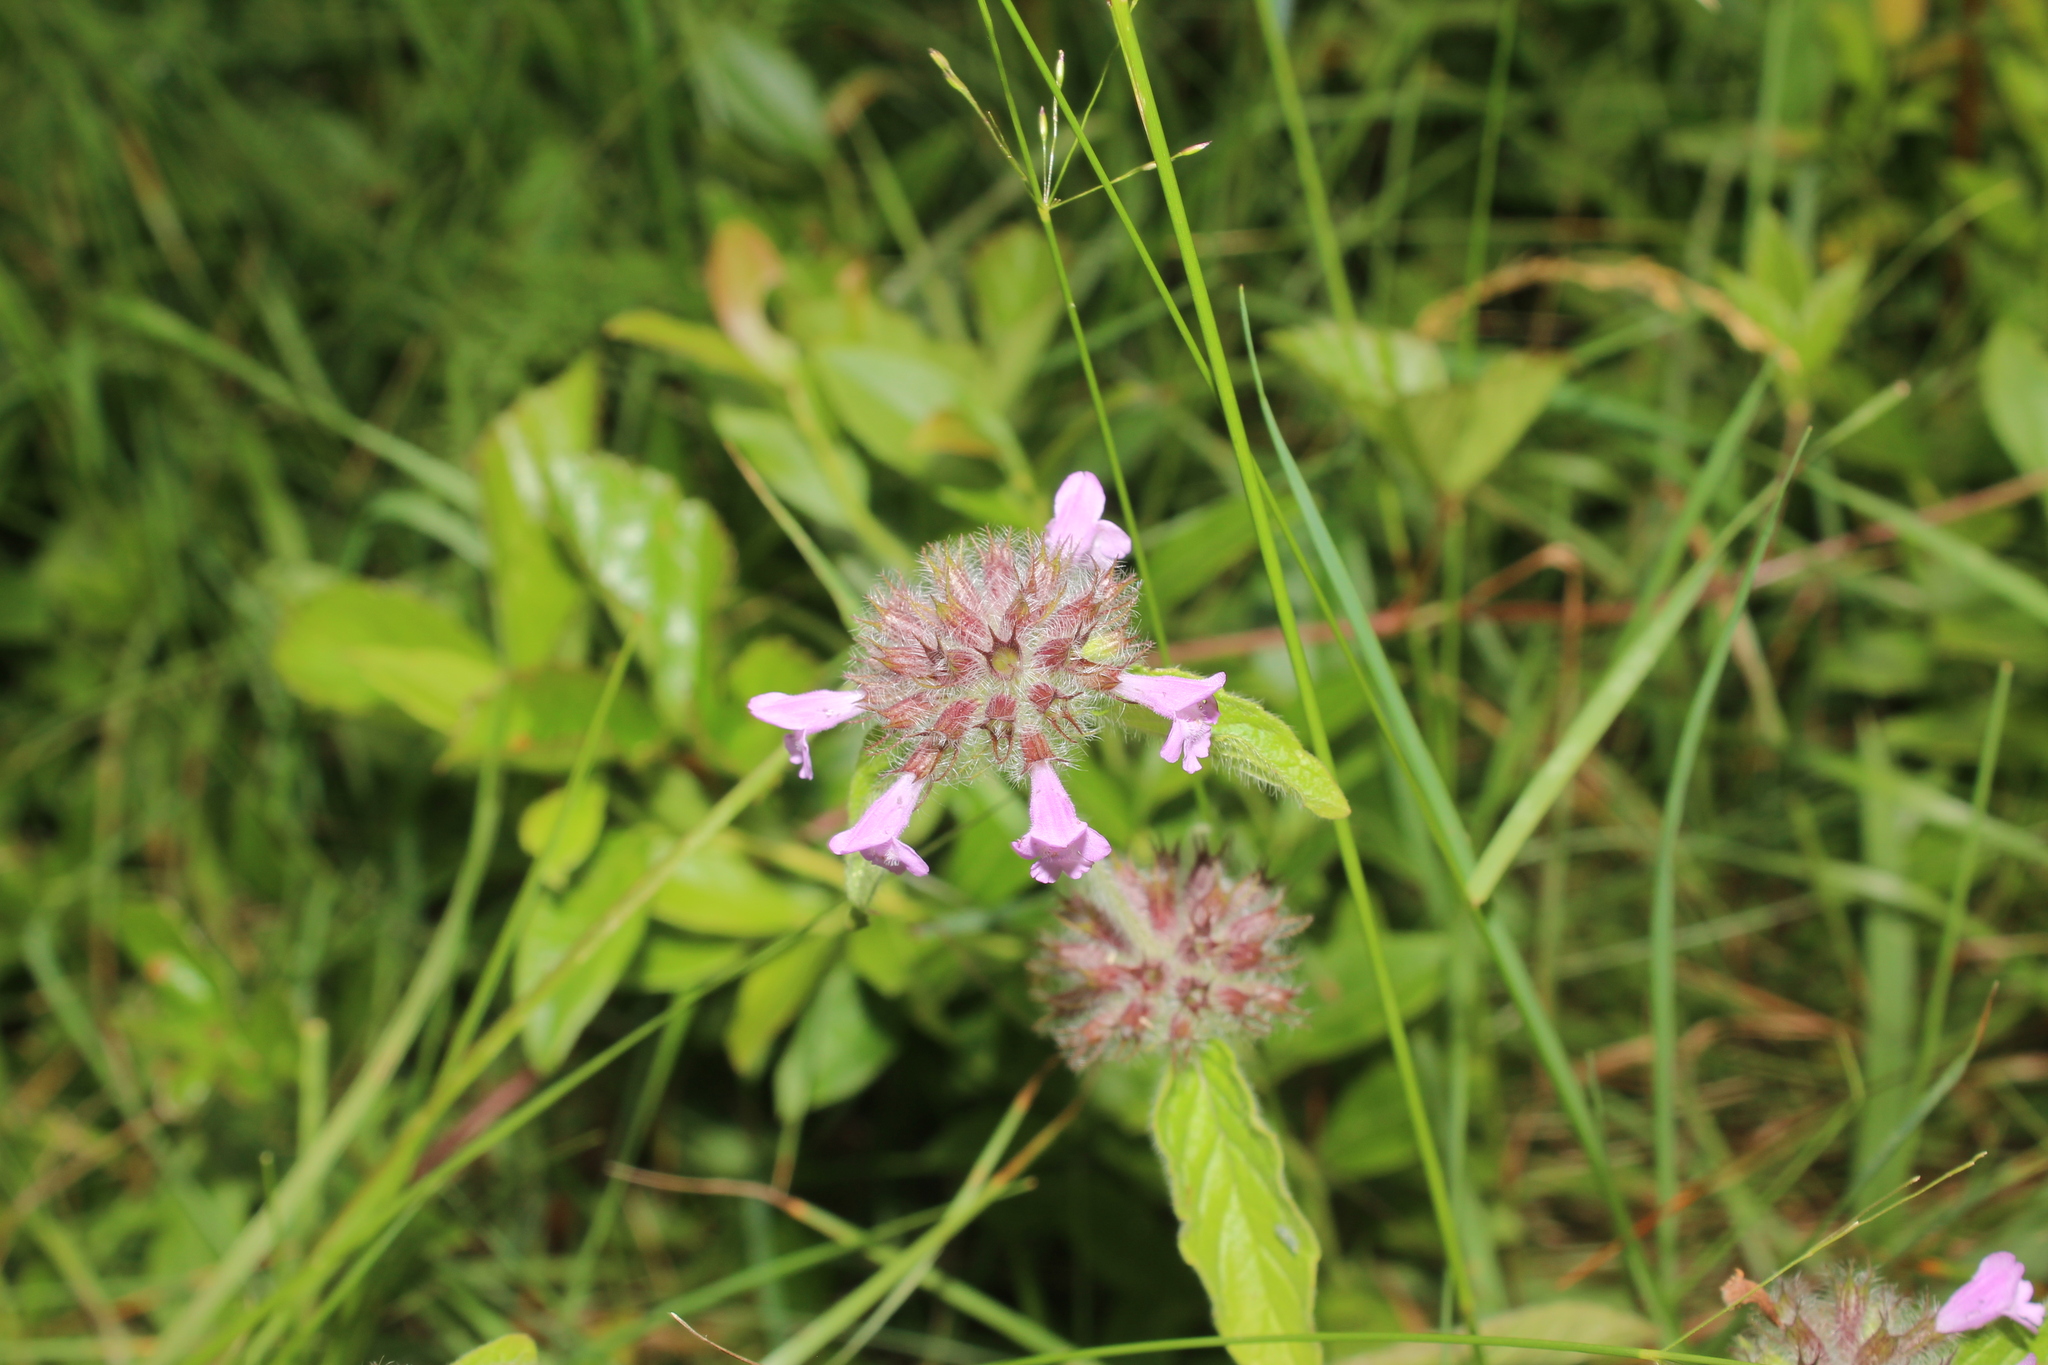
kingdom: Plantae
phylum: Tracheophyta
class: Magnoliopsida
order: Lamiales
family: Lamiaceae
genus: Clinopodium
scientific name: Clinopodium vulgare
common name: Wild basil
